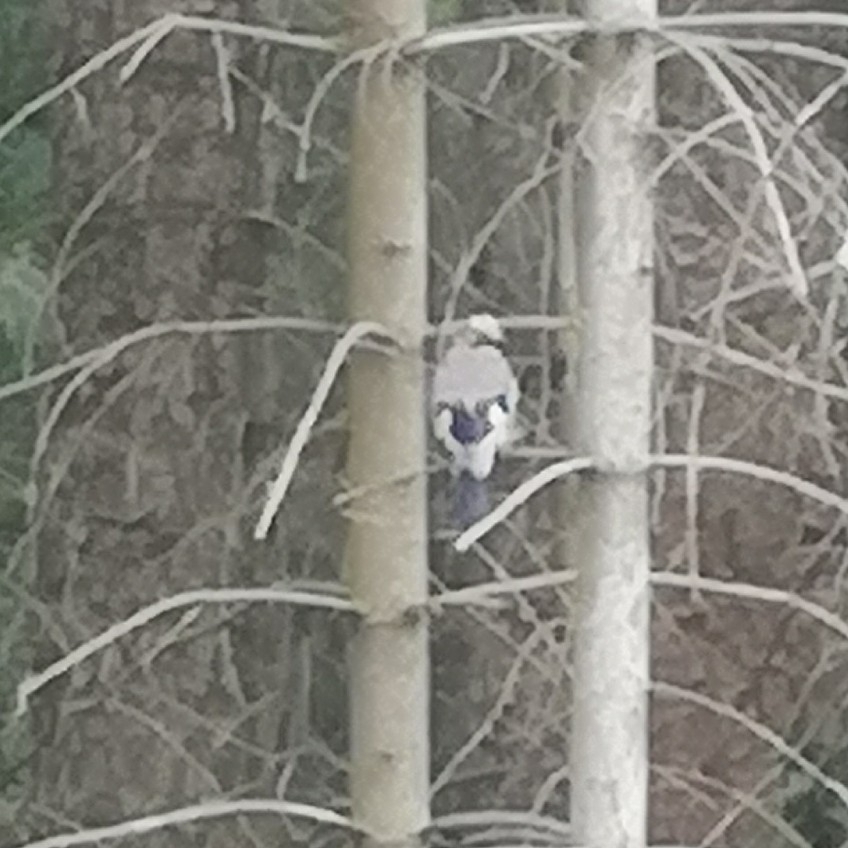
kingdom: Animalia
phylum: Chordata
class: Aves
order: Passeriformes
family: Corvidae
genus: Garrulus
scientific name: Garrulus glandarius
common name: Eurasian jay
